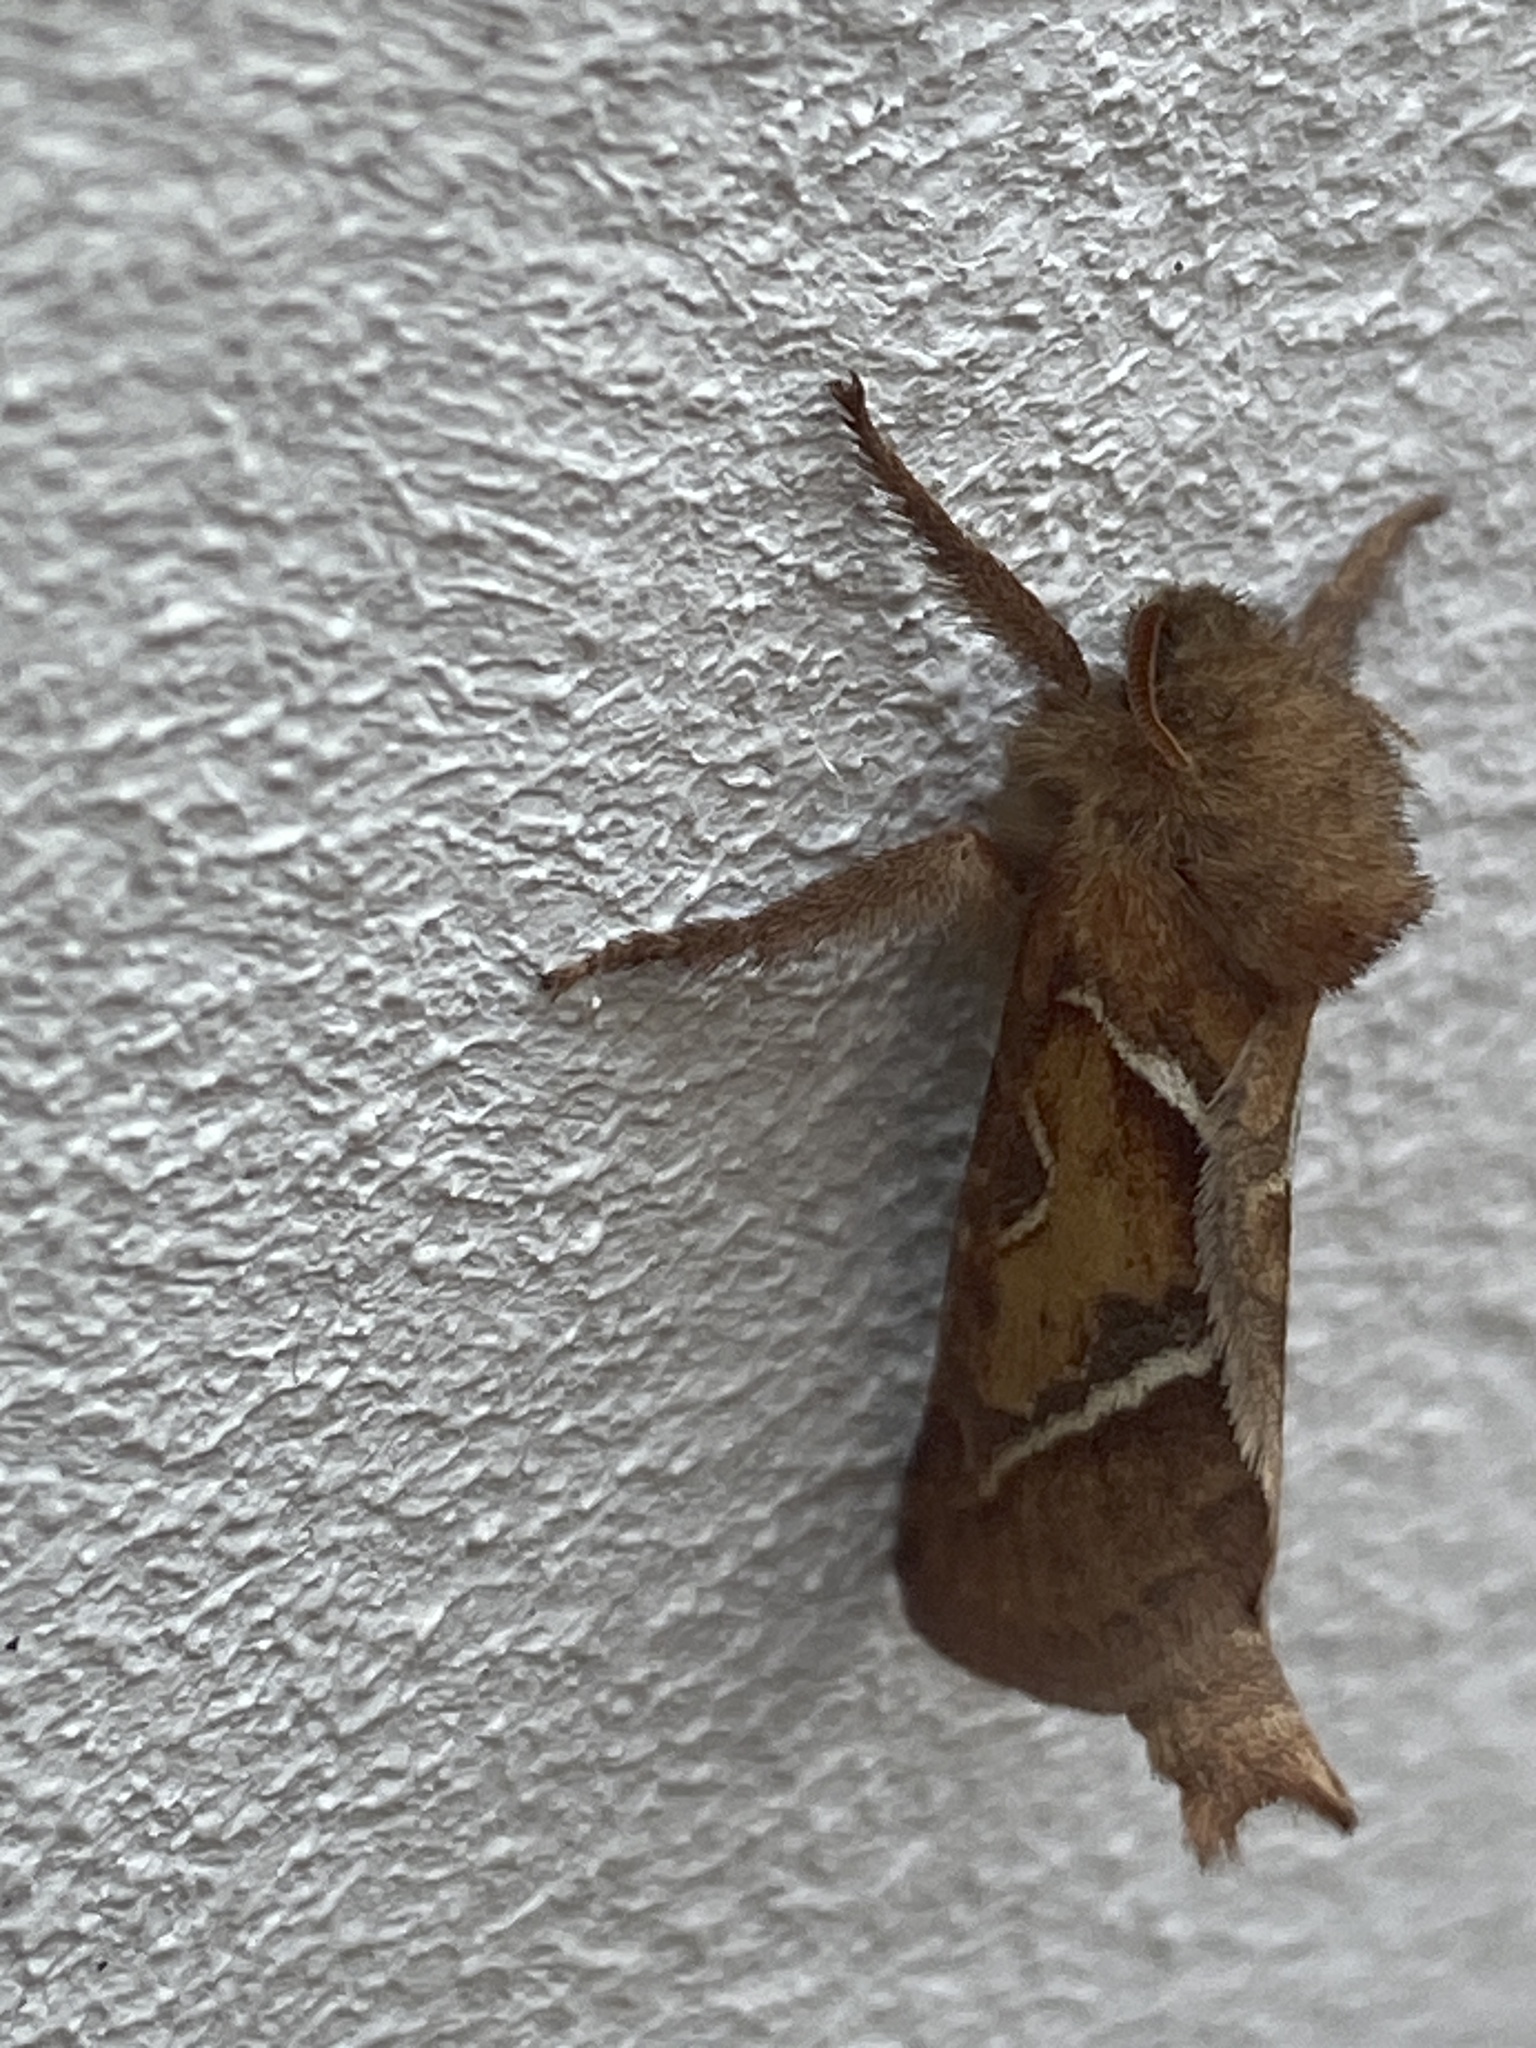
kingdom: Animalia
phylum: Arthropoda
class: Insecta
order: Lepidoptera
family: Hepialidae
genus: Triodia
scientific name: Triodia sylvina
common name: Orange swift
